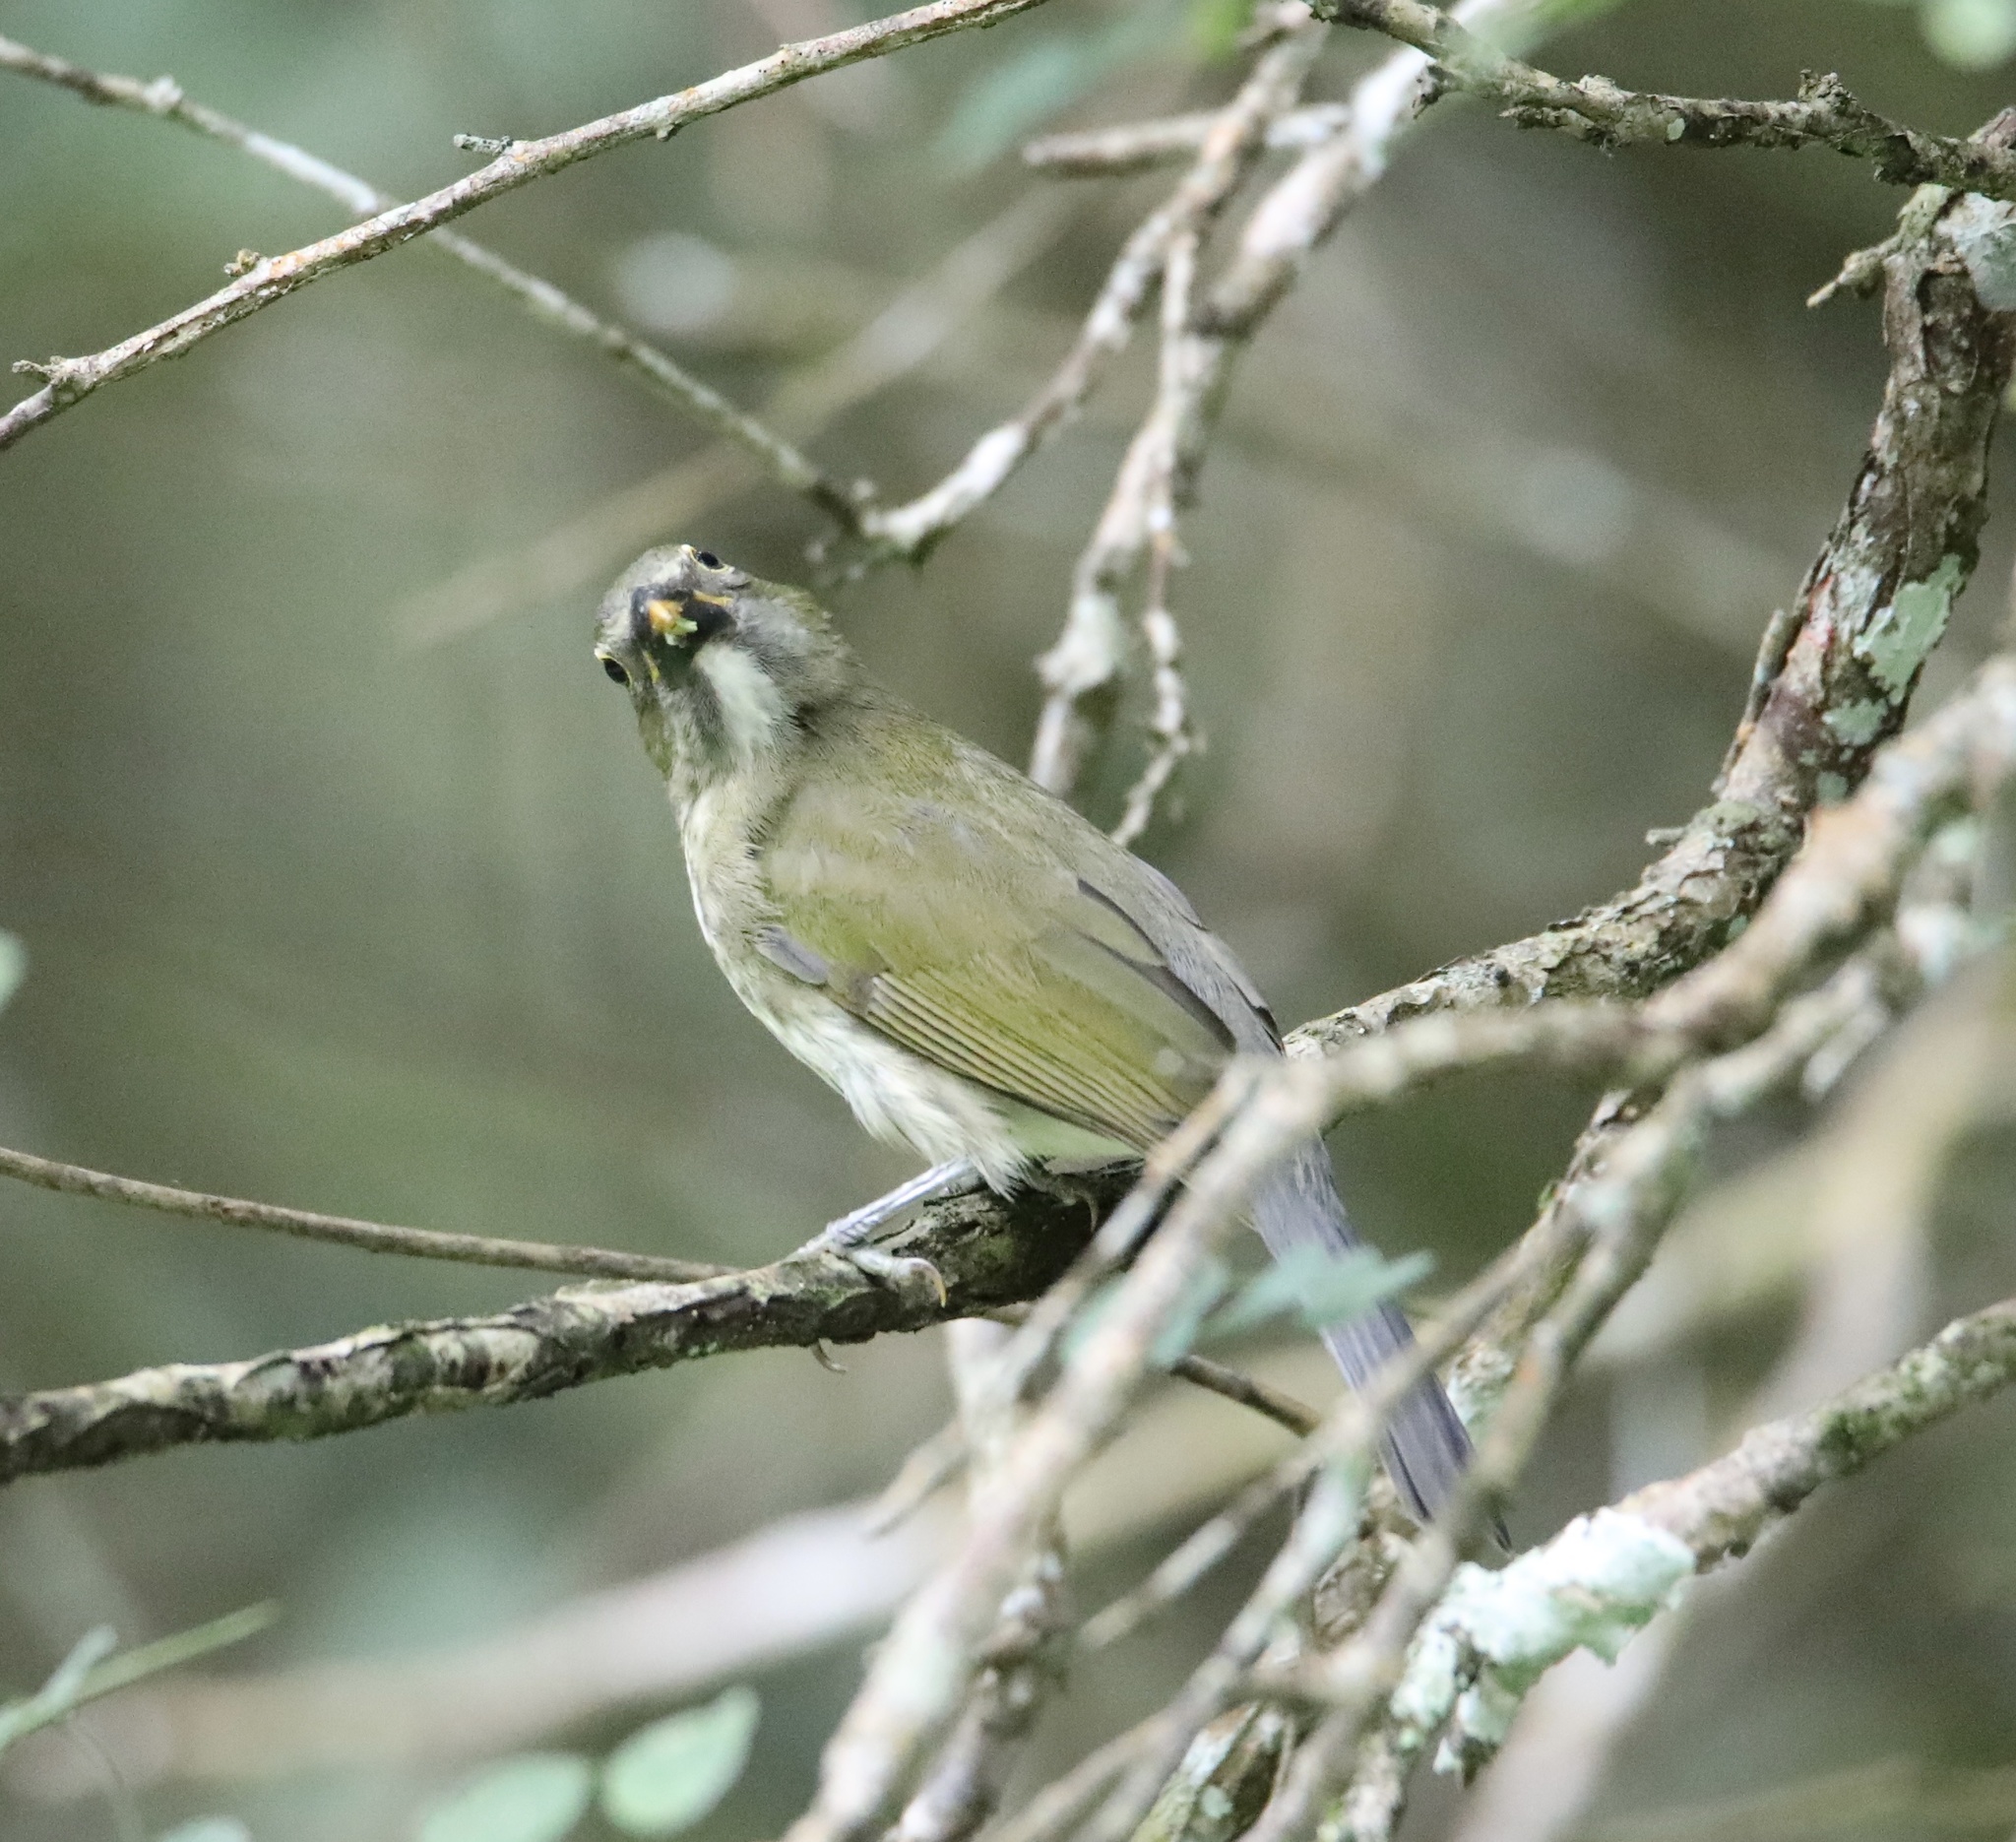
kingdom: Animalia
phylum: Chordata
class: Aves
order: Passeriformes
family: Thraupidae
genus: Saltator
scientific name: Saltator striatipectus
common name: Streaked saltator
